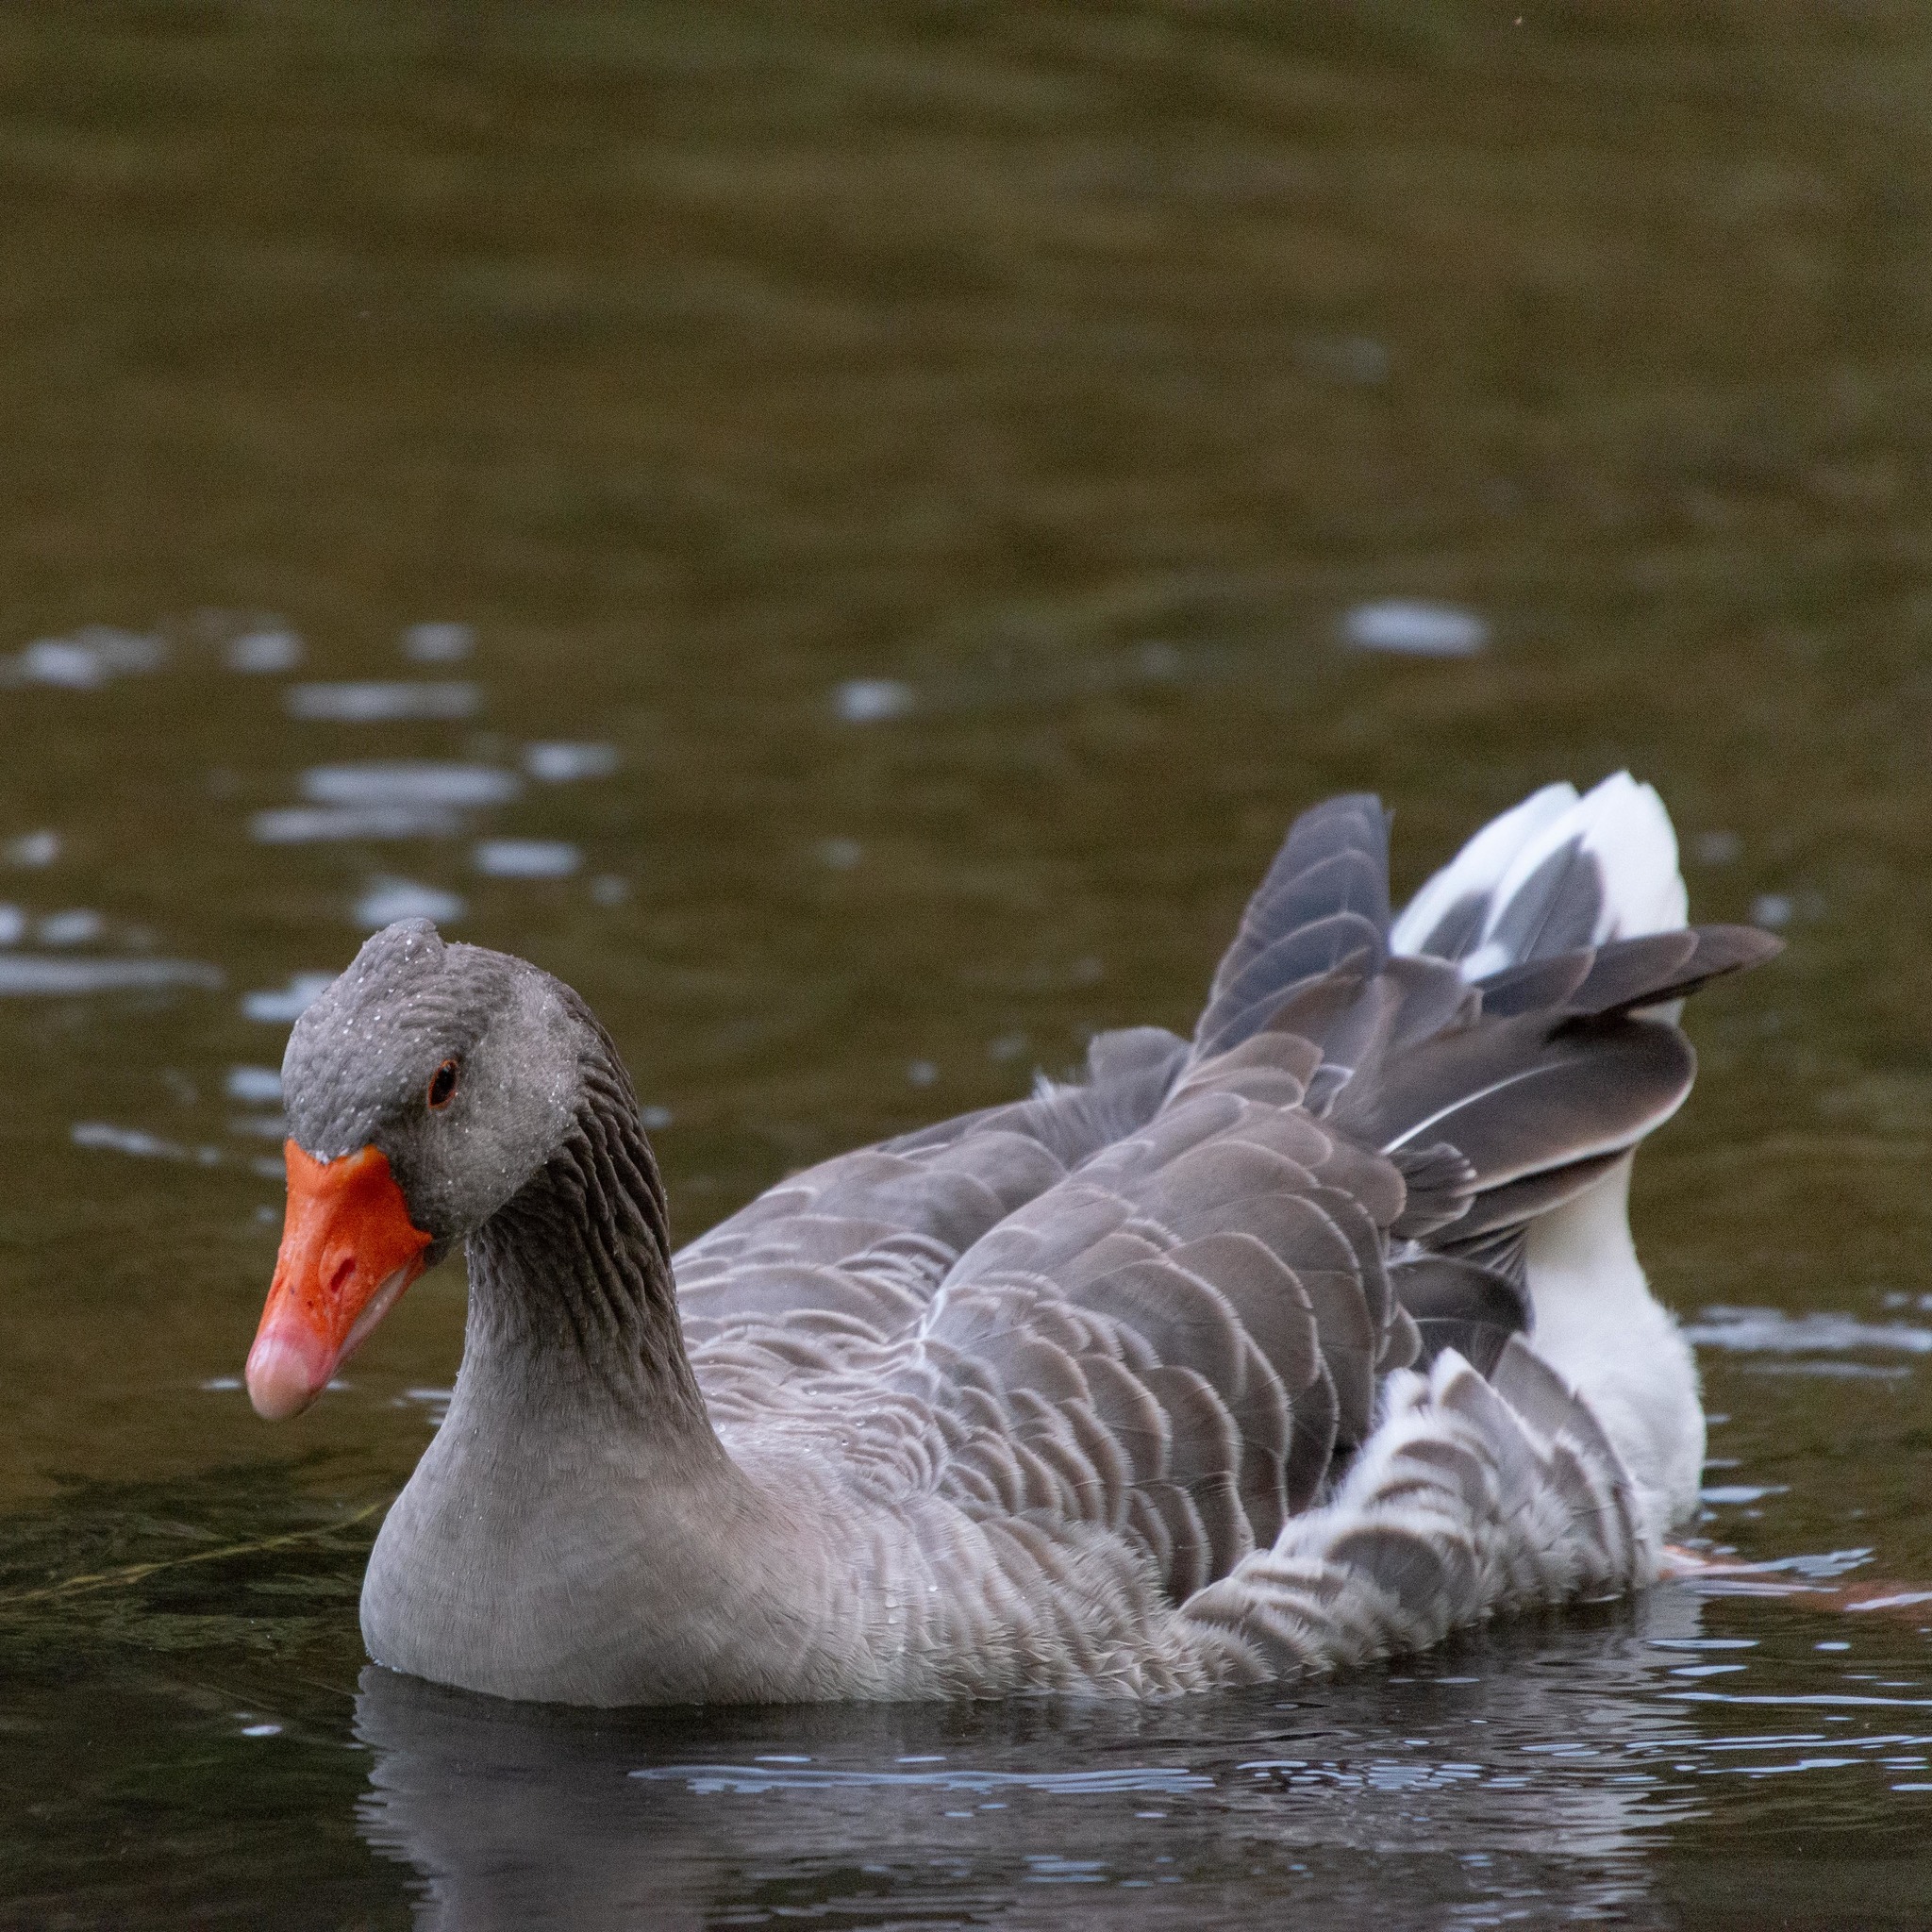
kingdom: Animalia
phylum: Chordata
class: Aves
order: Anseriformes
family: Anatidae
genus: Anser
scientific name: Anser anser
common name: Greylag goose
